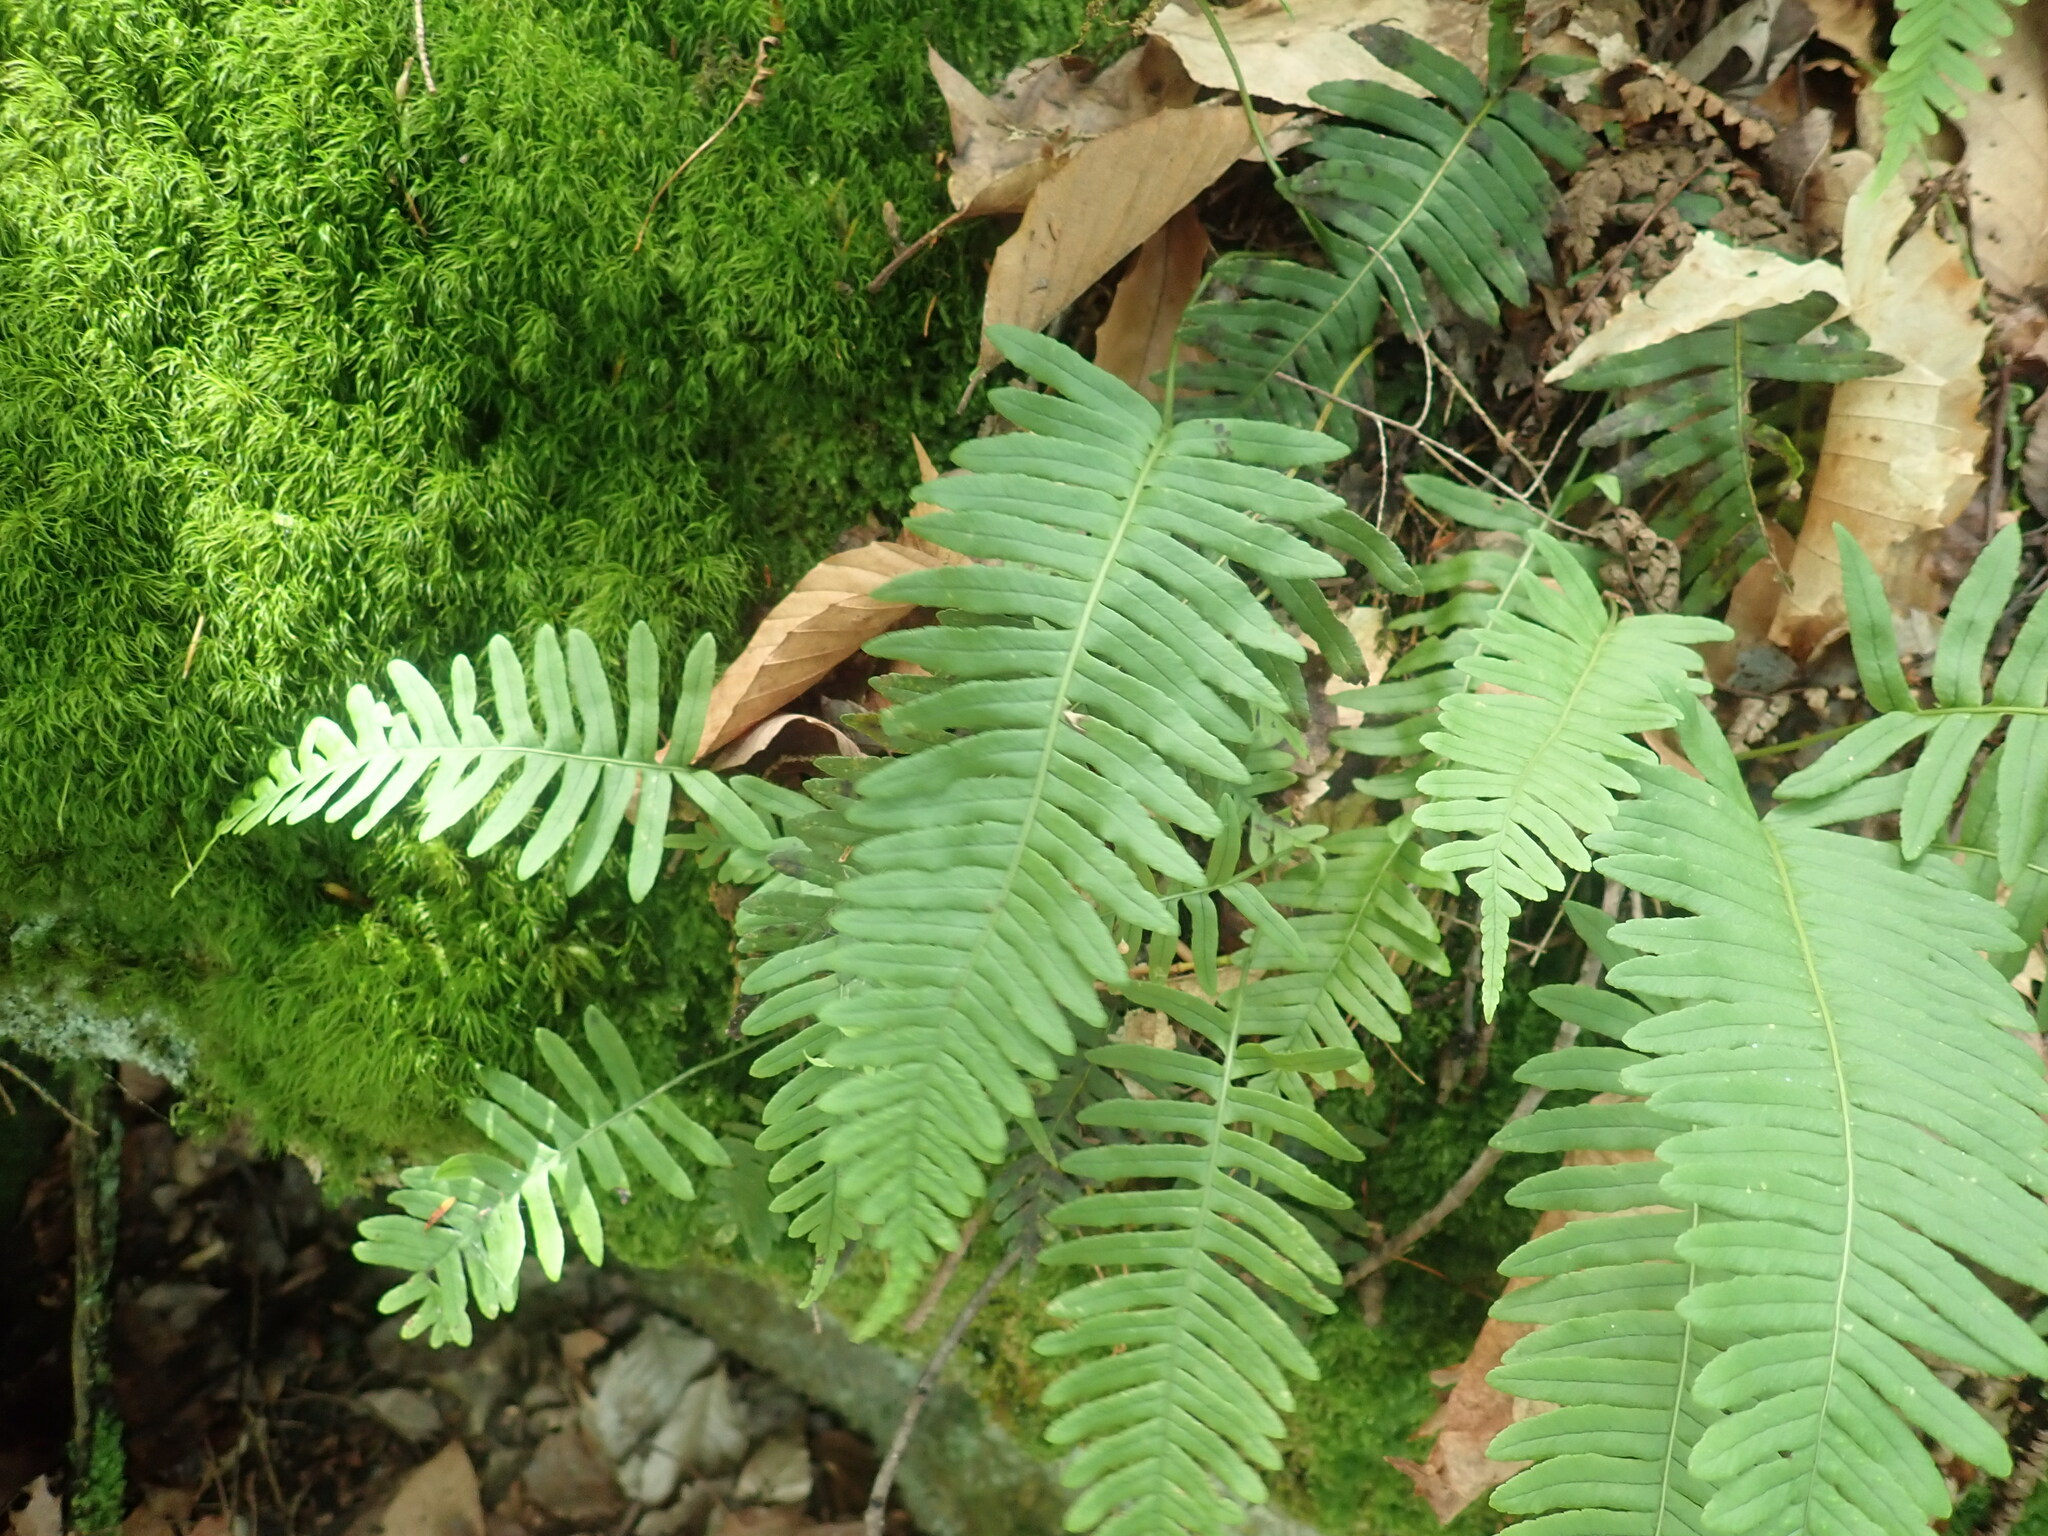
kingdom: Plantae
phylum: Tracheophyta
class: Polypodiopsida
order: Polypodiales
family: Polypodiaceae
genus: Polypodium
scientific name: Polypodium
